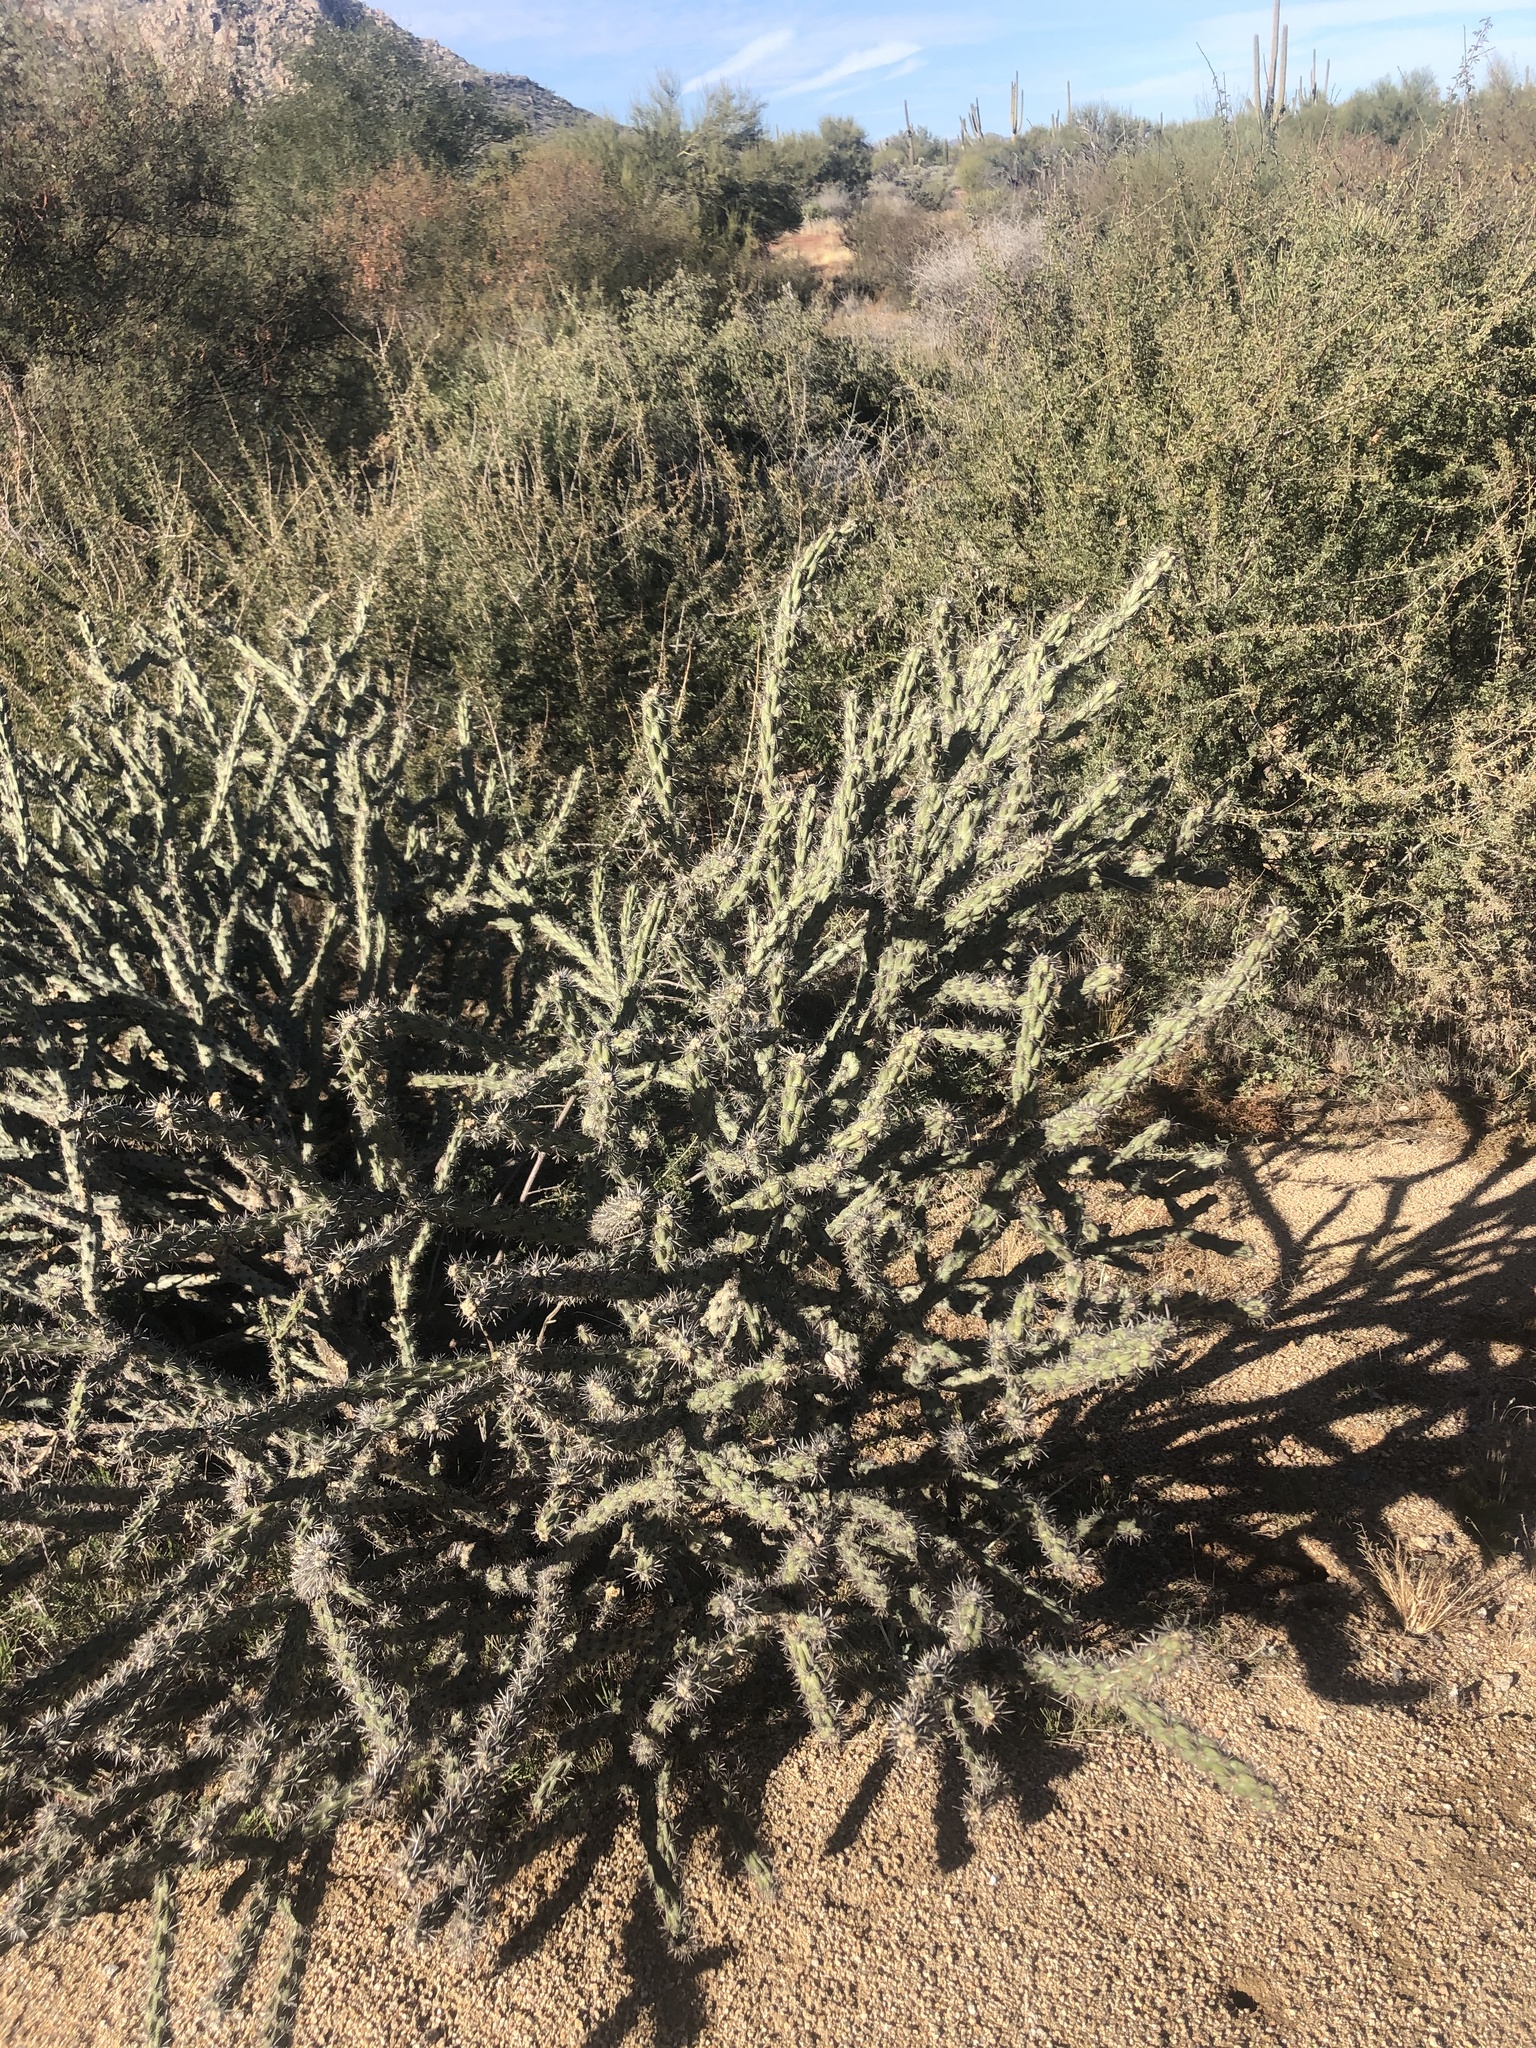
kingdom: Plantae
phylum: Tracheophyta
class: Magnoliopsida
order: Caryophyllales
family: Cactaceae
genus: Cylindropuntia
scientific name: Cylindropuntia acanthocarpa
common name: Buckhorn cholla
